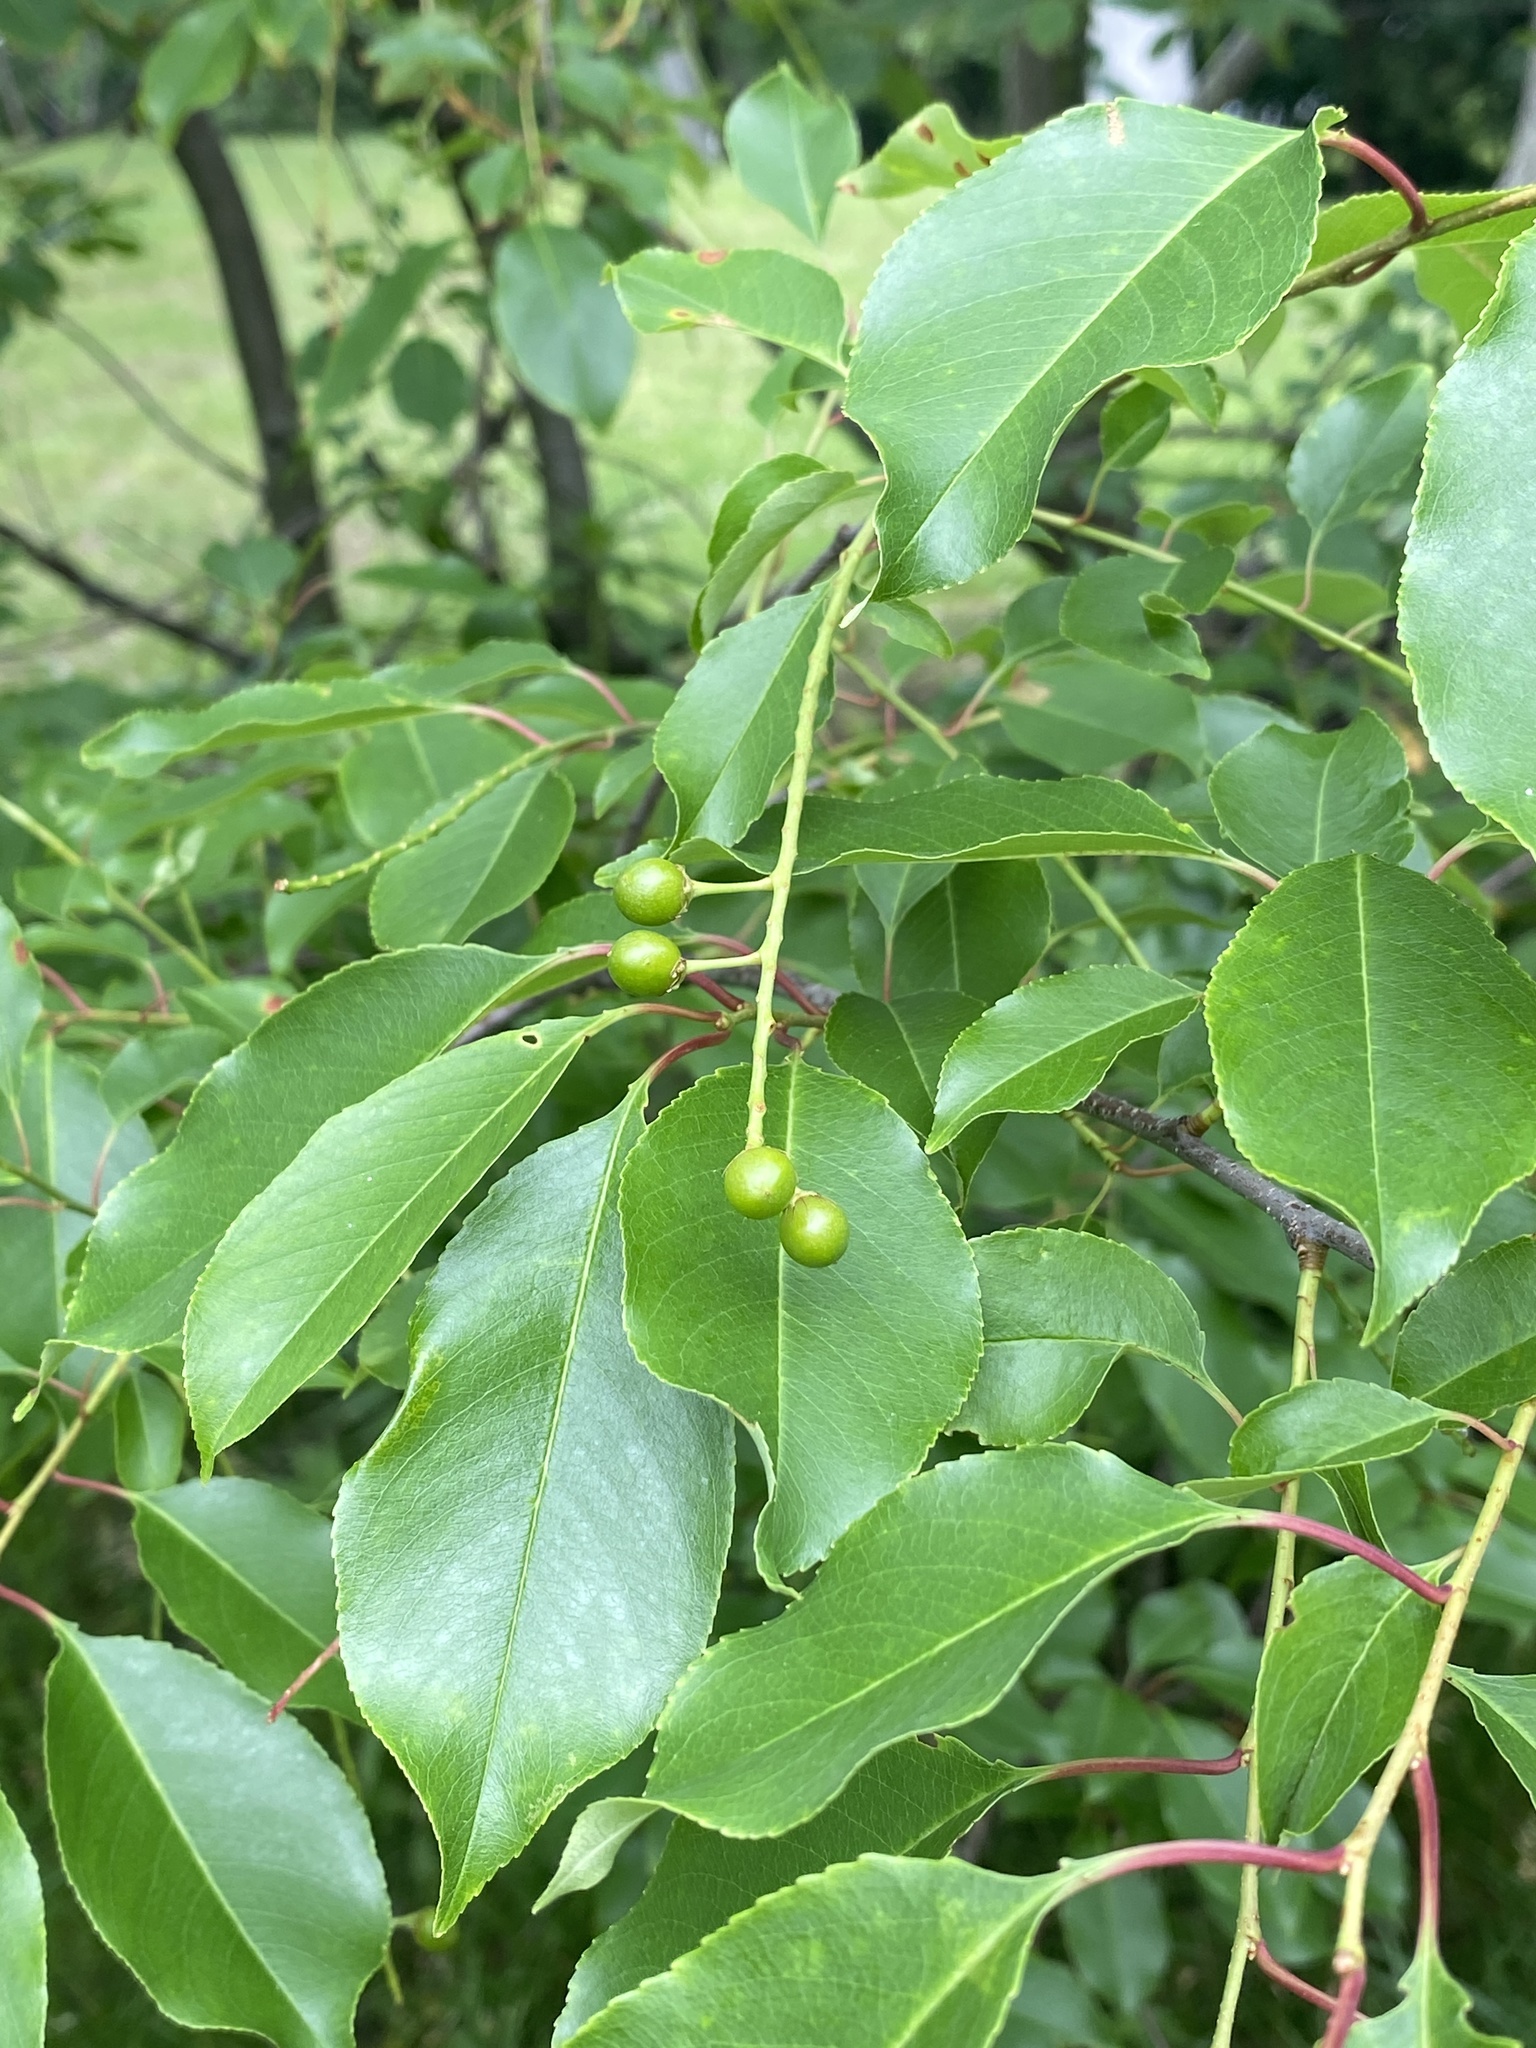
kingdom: Plantae
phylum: Tracheophyta
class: Magnoliopsida
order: Rosales
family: Rosaceae
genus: Prunus
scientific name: Prunus serotina
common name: Black cherry
